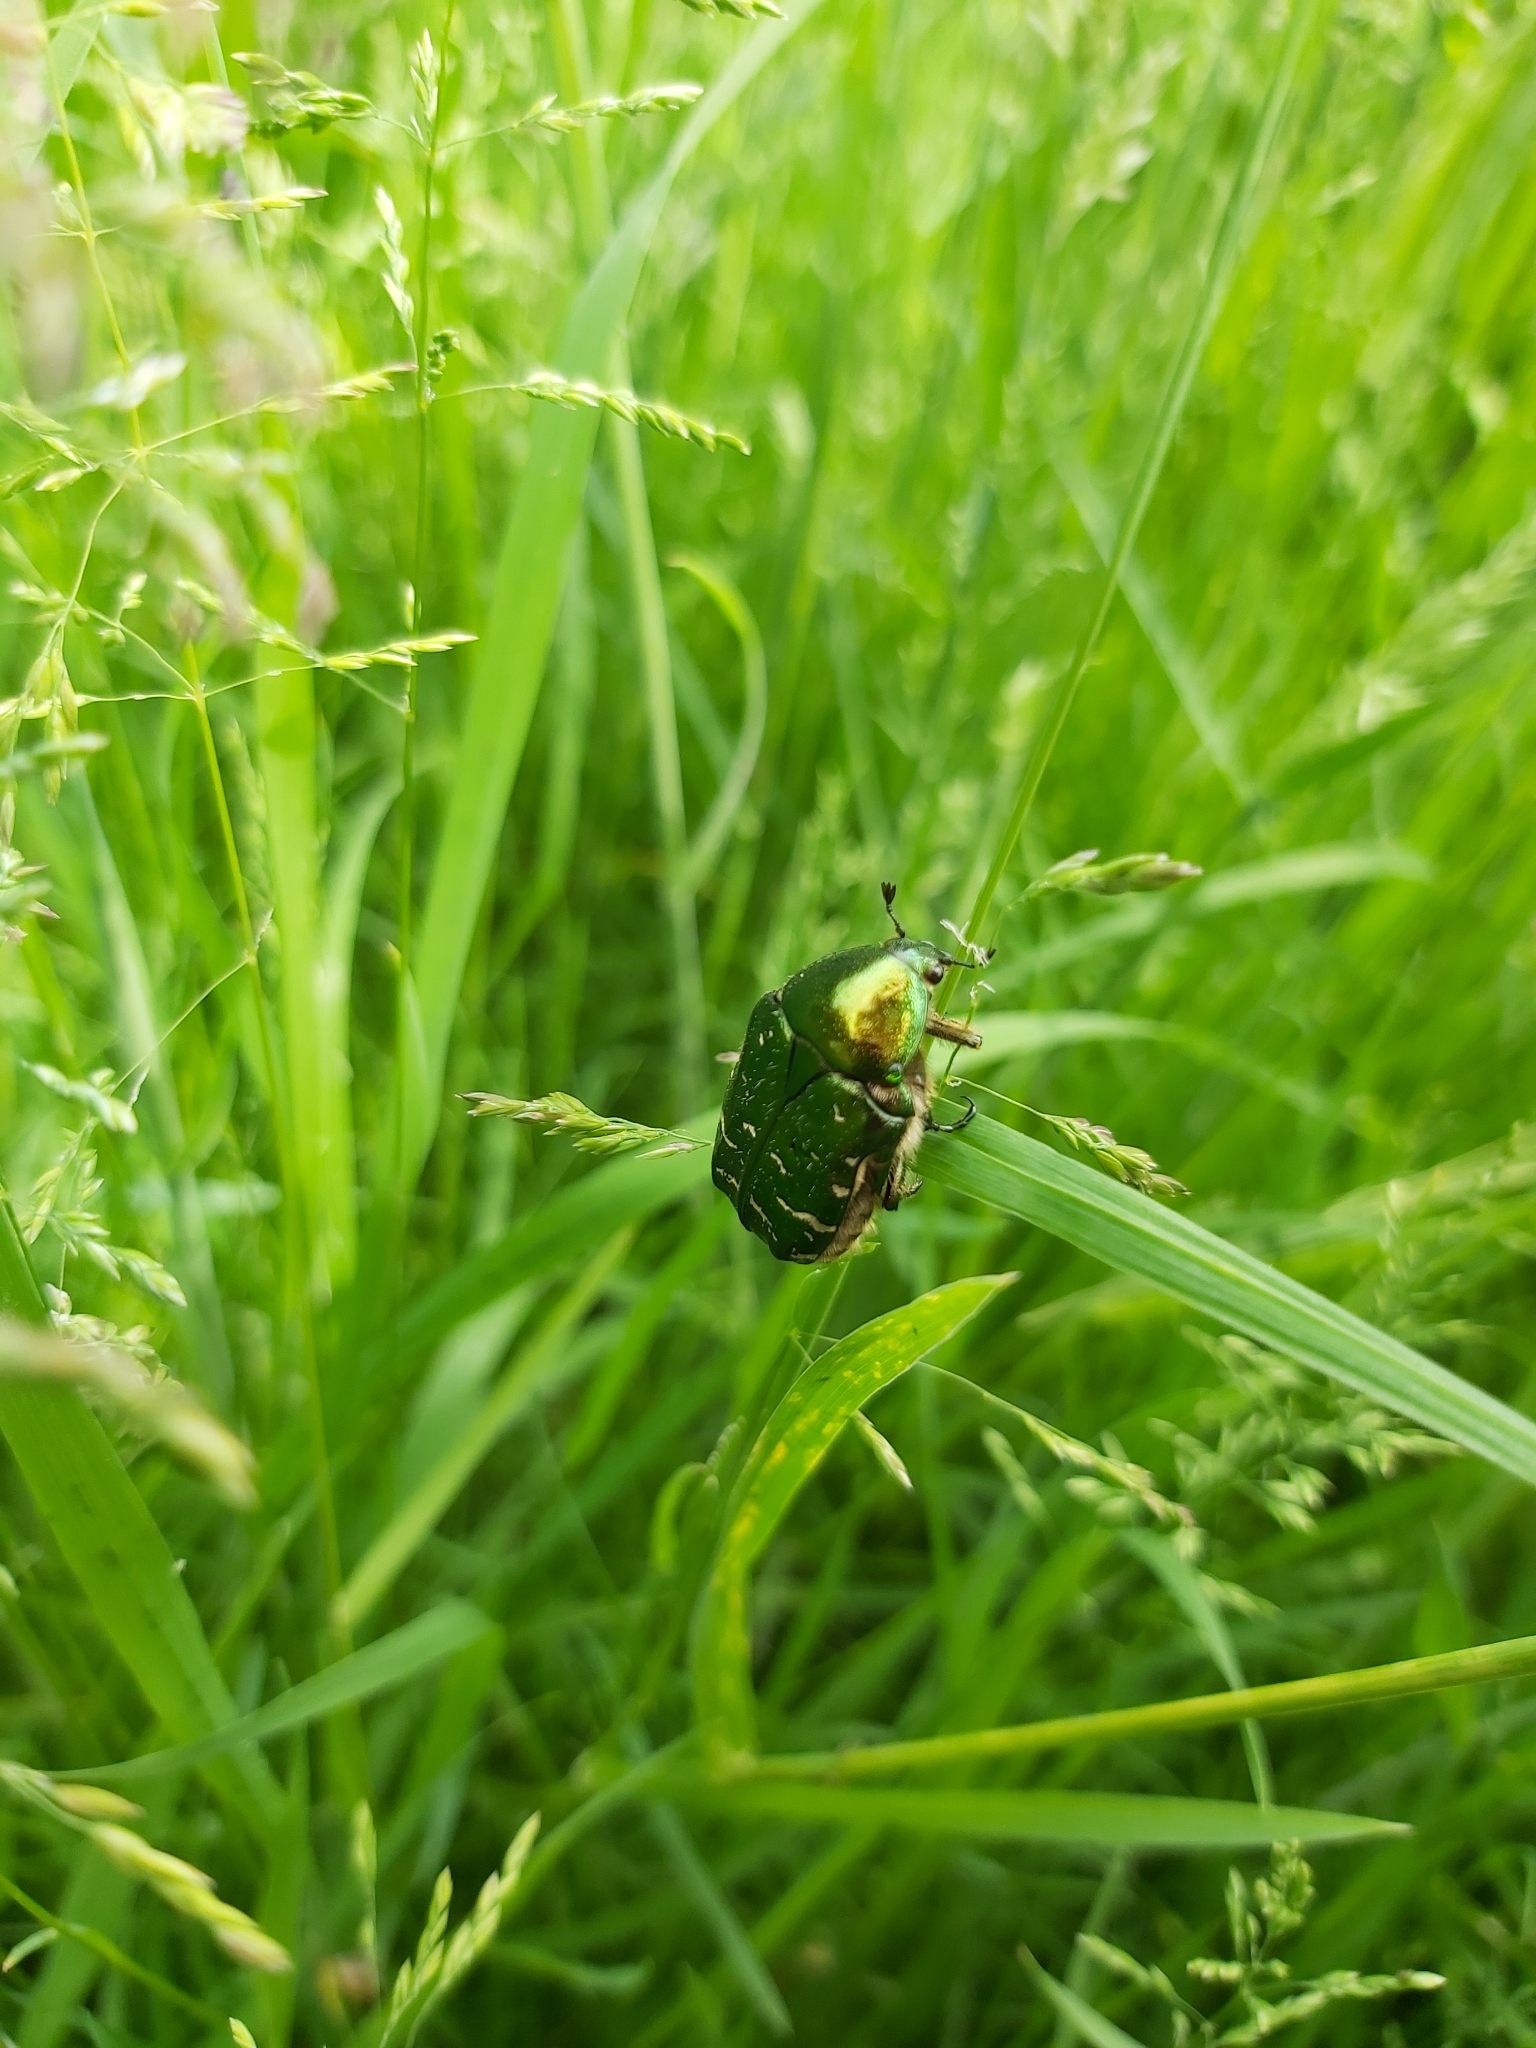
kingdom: Animalia
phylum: Arthropoda
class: Insecta
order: Coleoptera
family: Scarabaeidae
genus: Cetonia
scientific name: Cetonia aurata
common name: Rose chafer
